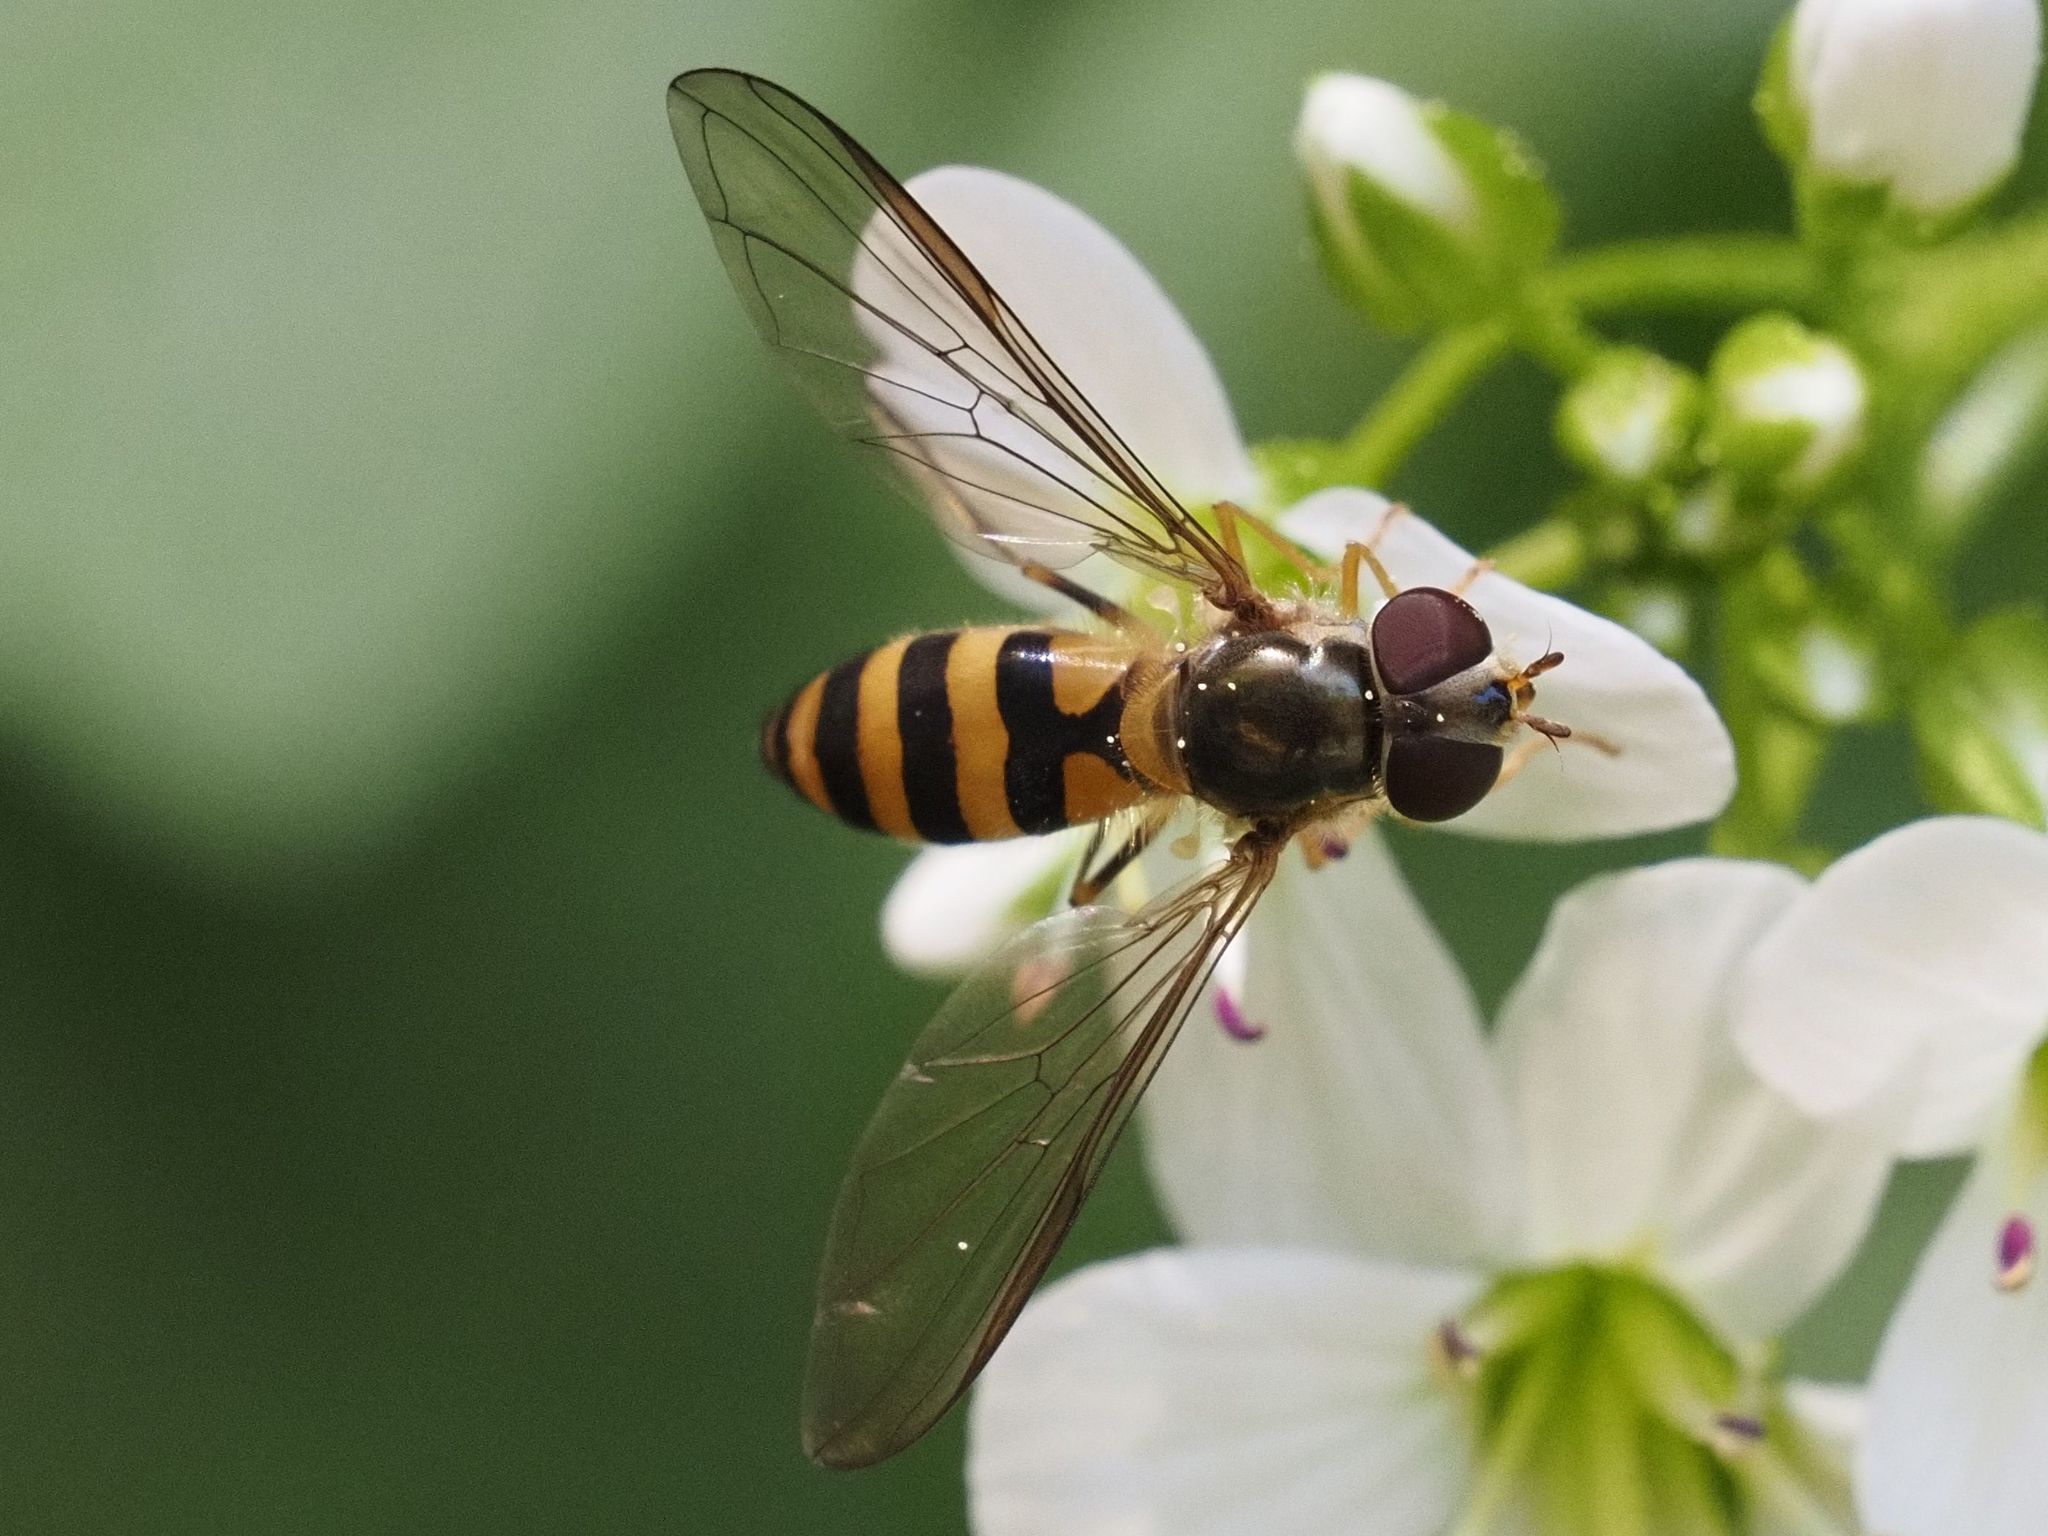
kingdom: Animalia
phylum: Arthropoda
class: Insecta
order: Diptera
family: Syrphidae
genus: Meliscaeva
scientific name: Meliscaeva cinctella
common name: American thintail fly
